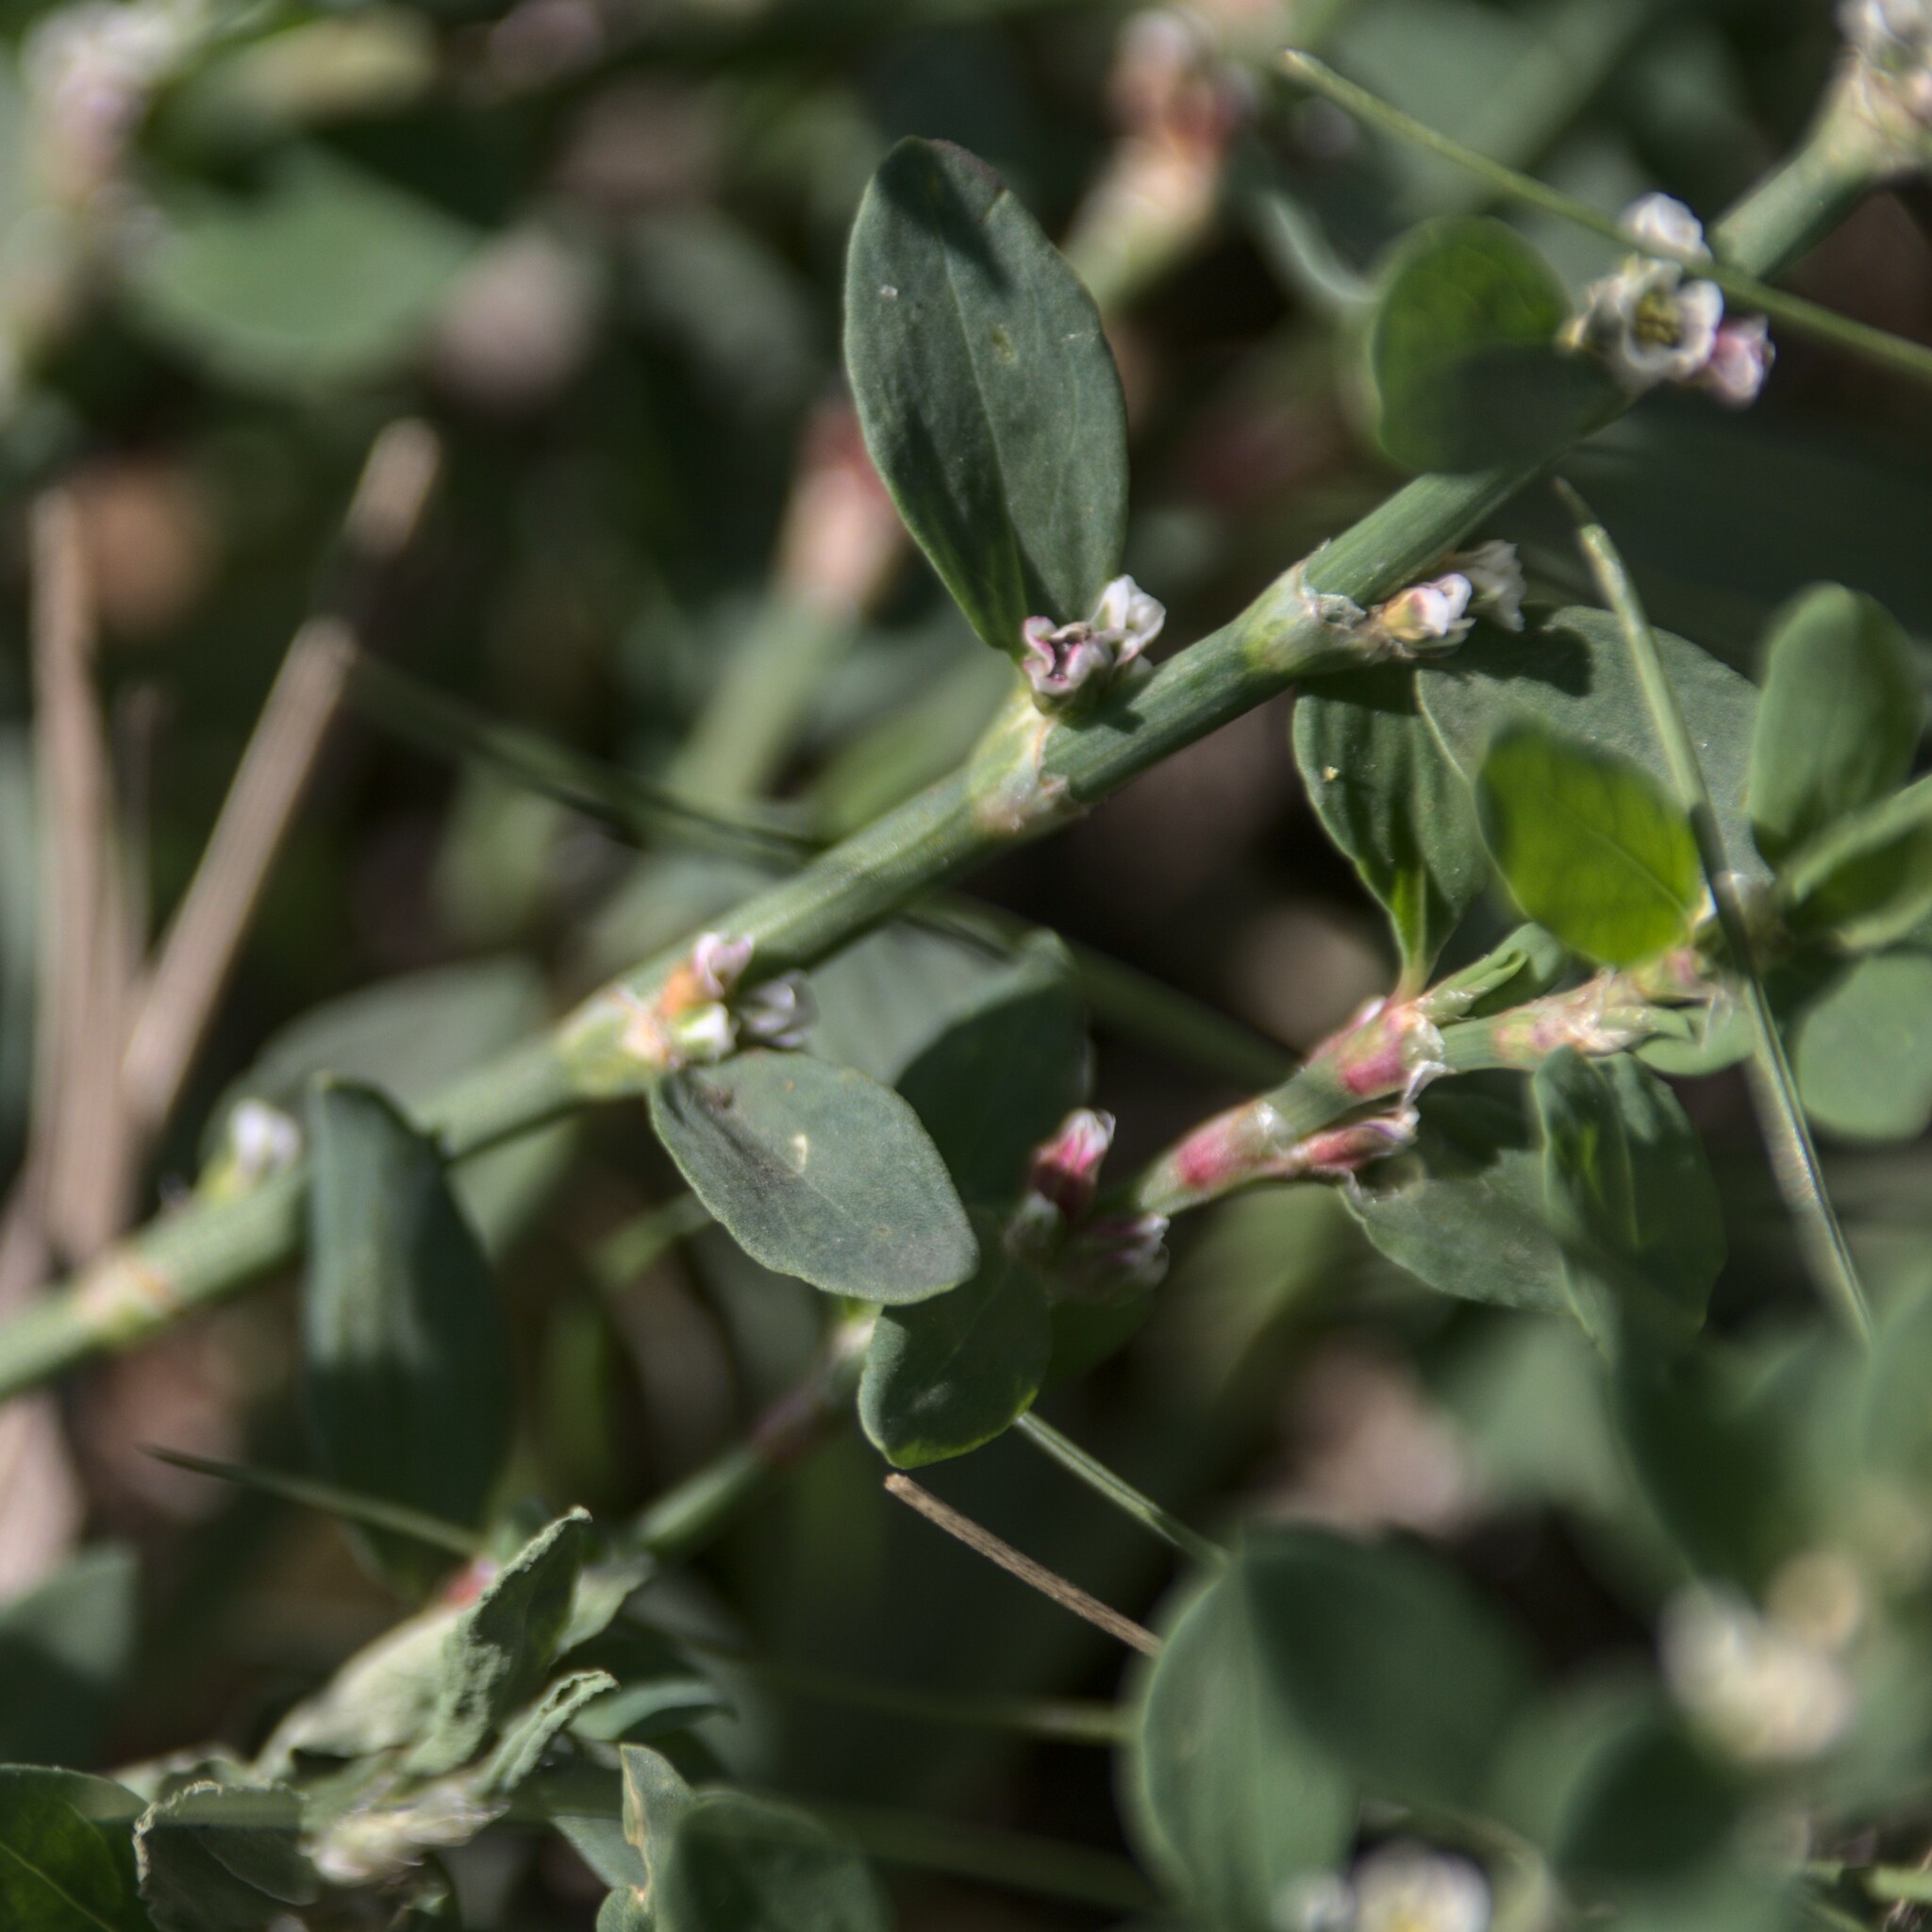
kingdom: Plantae
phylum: Tracheophyta
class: Magnoliopsida
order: Caryophyllales
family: Polygonaceae
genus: Polygonum
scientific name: Polygonum
